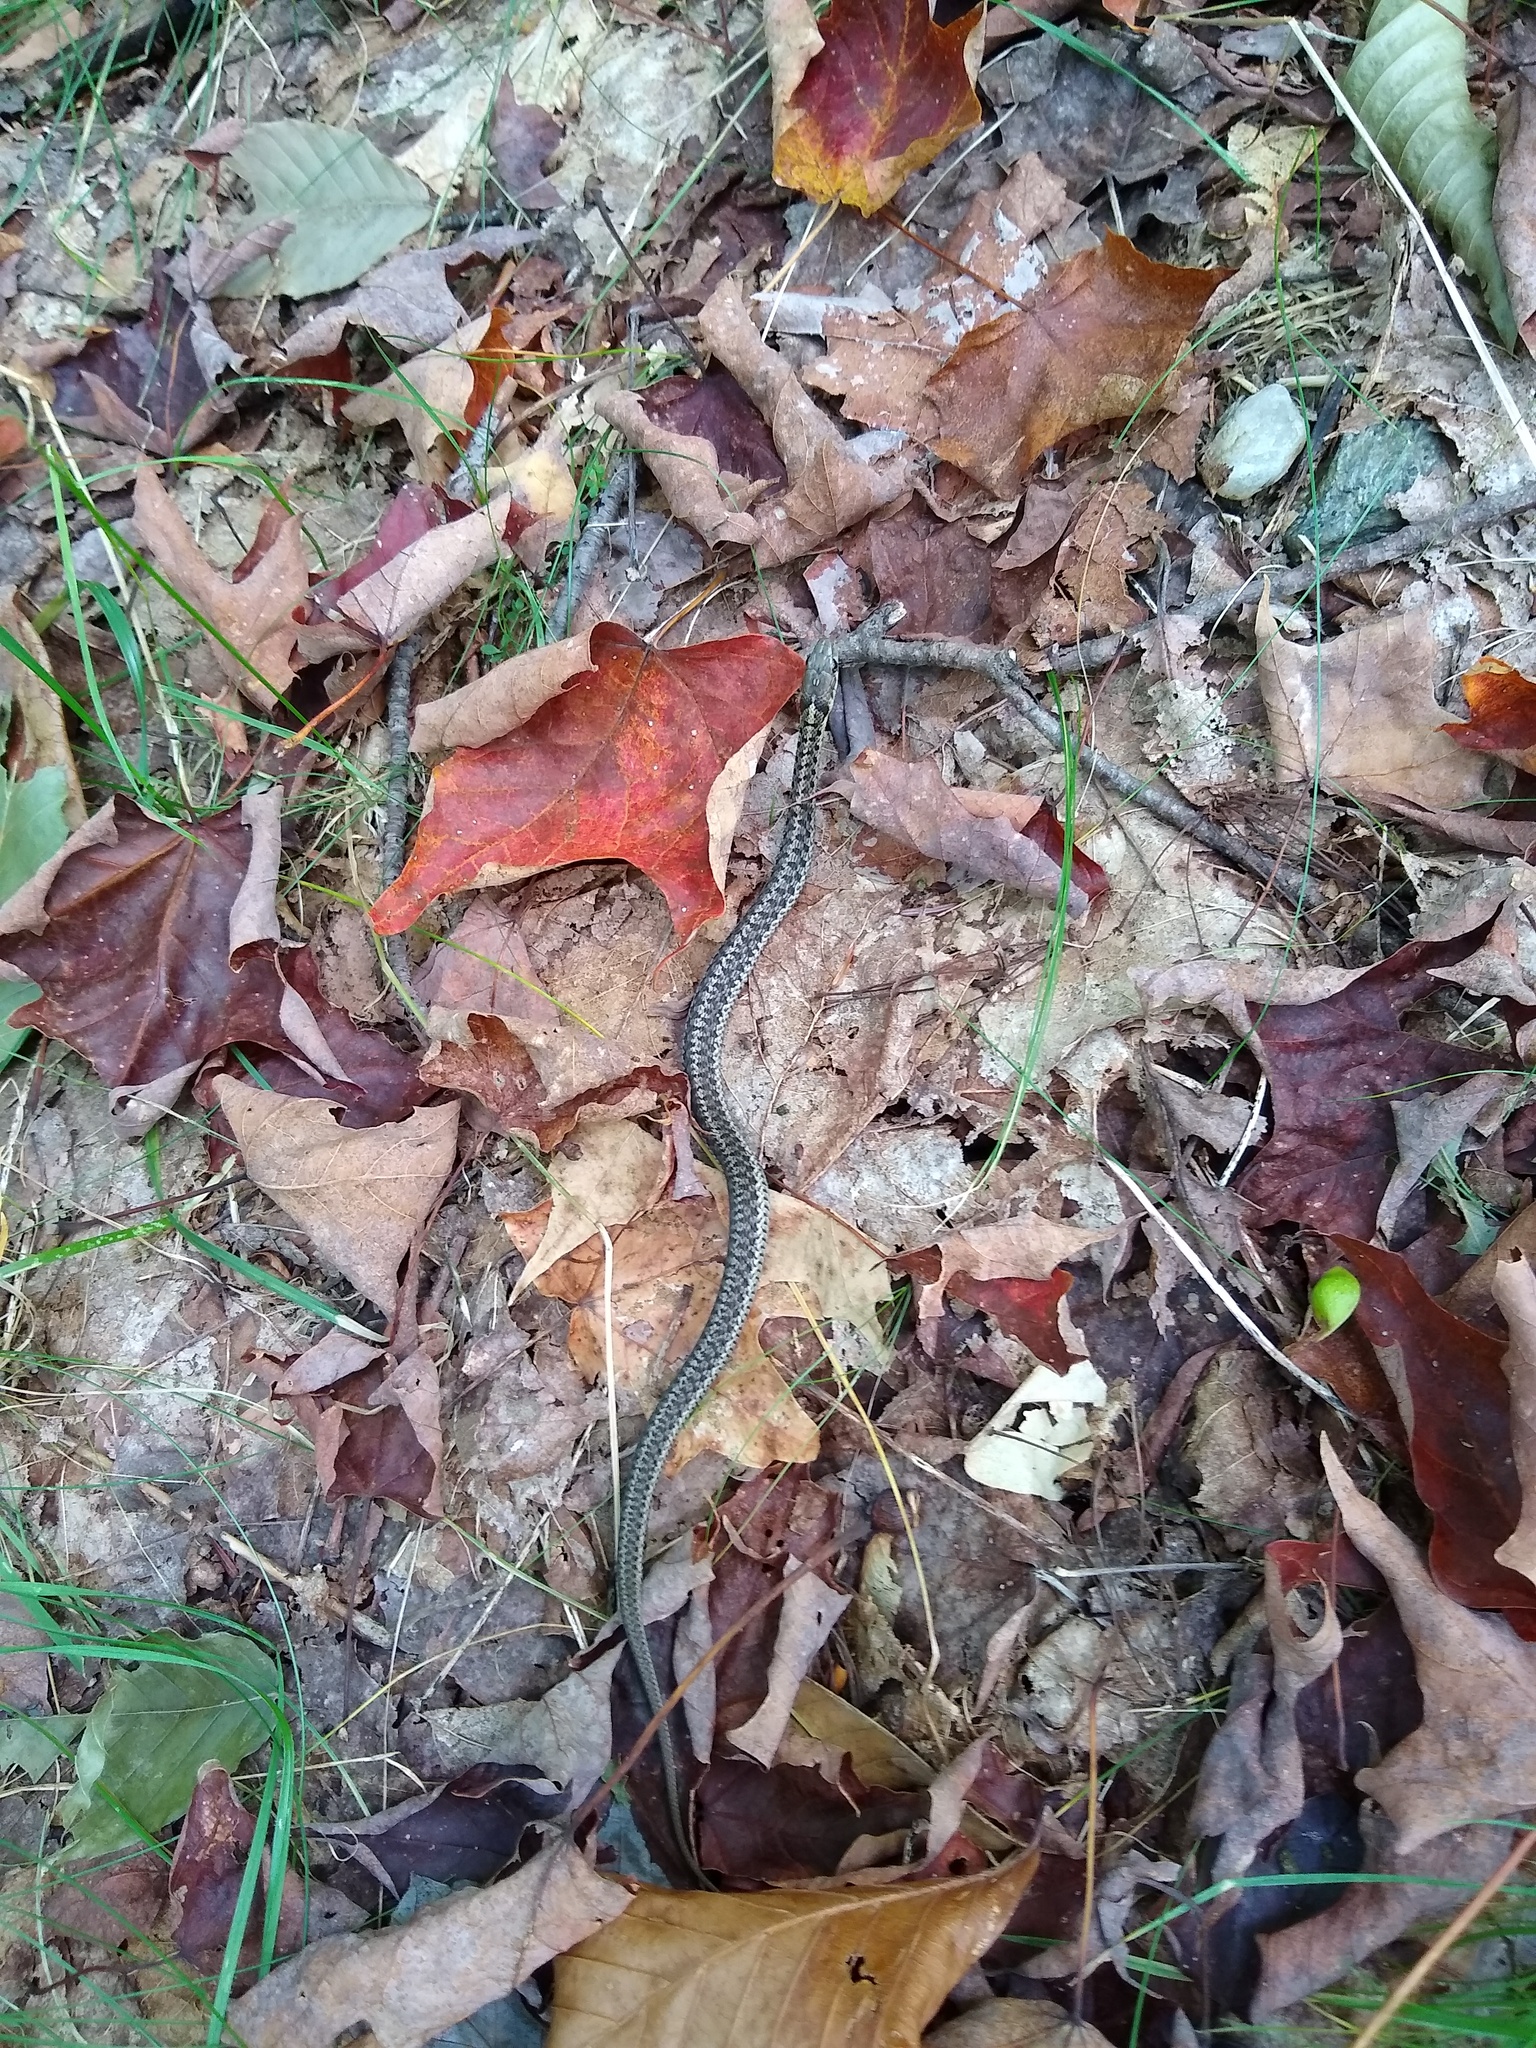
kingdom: Animalia
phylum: Chordata
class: Squamata
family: Colubridae
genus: Thamnophis
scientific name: Thamnophis sirtalis
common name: Common garter snake
